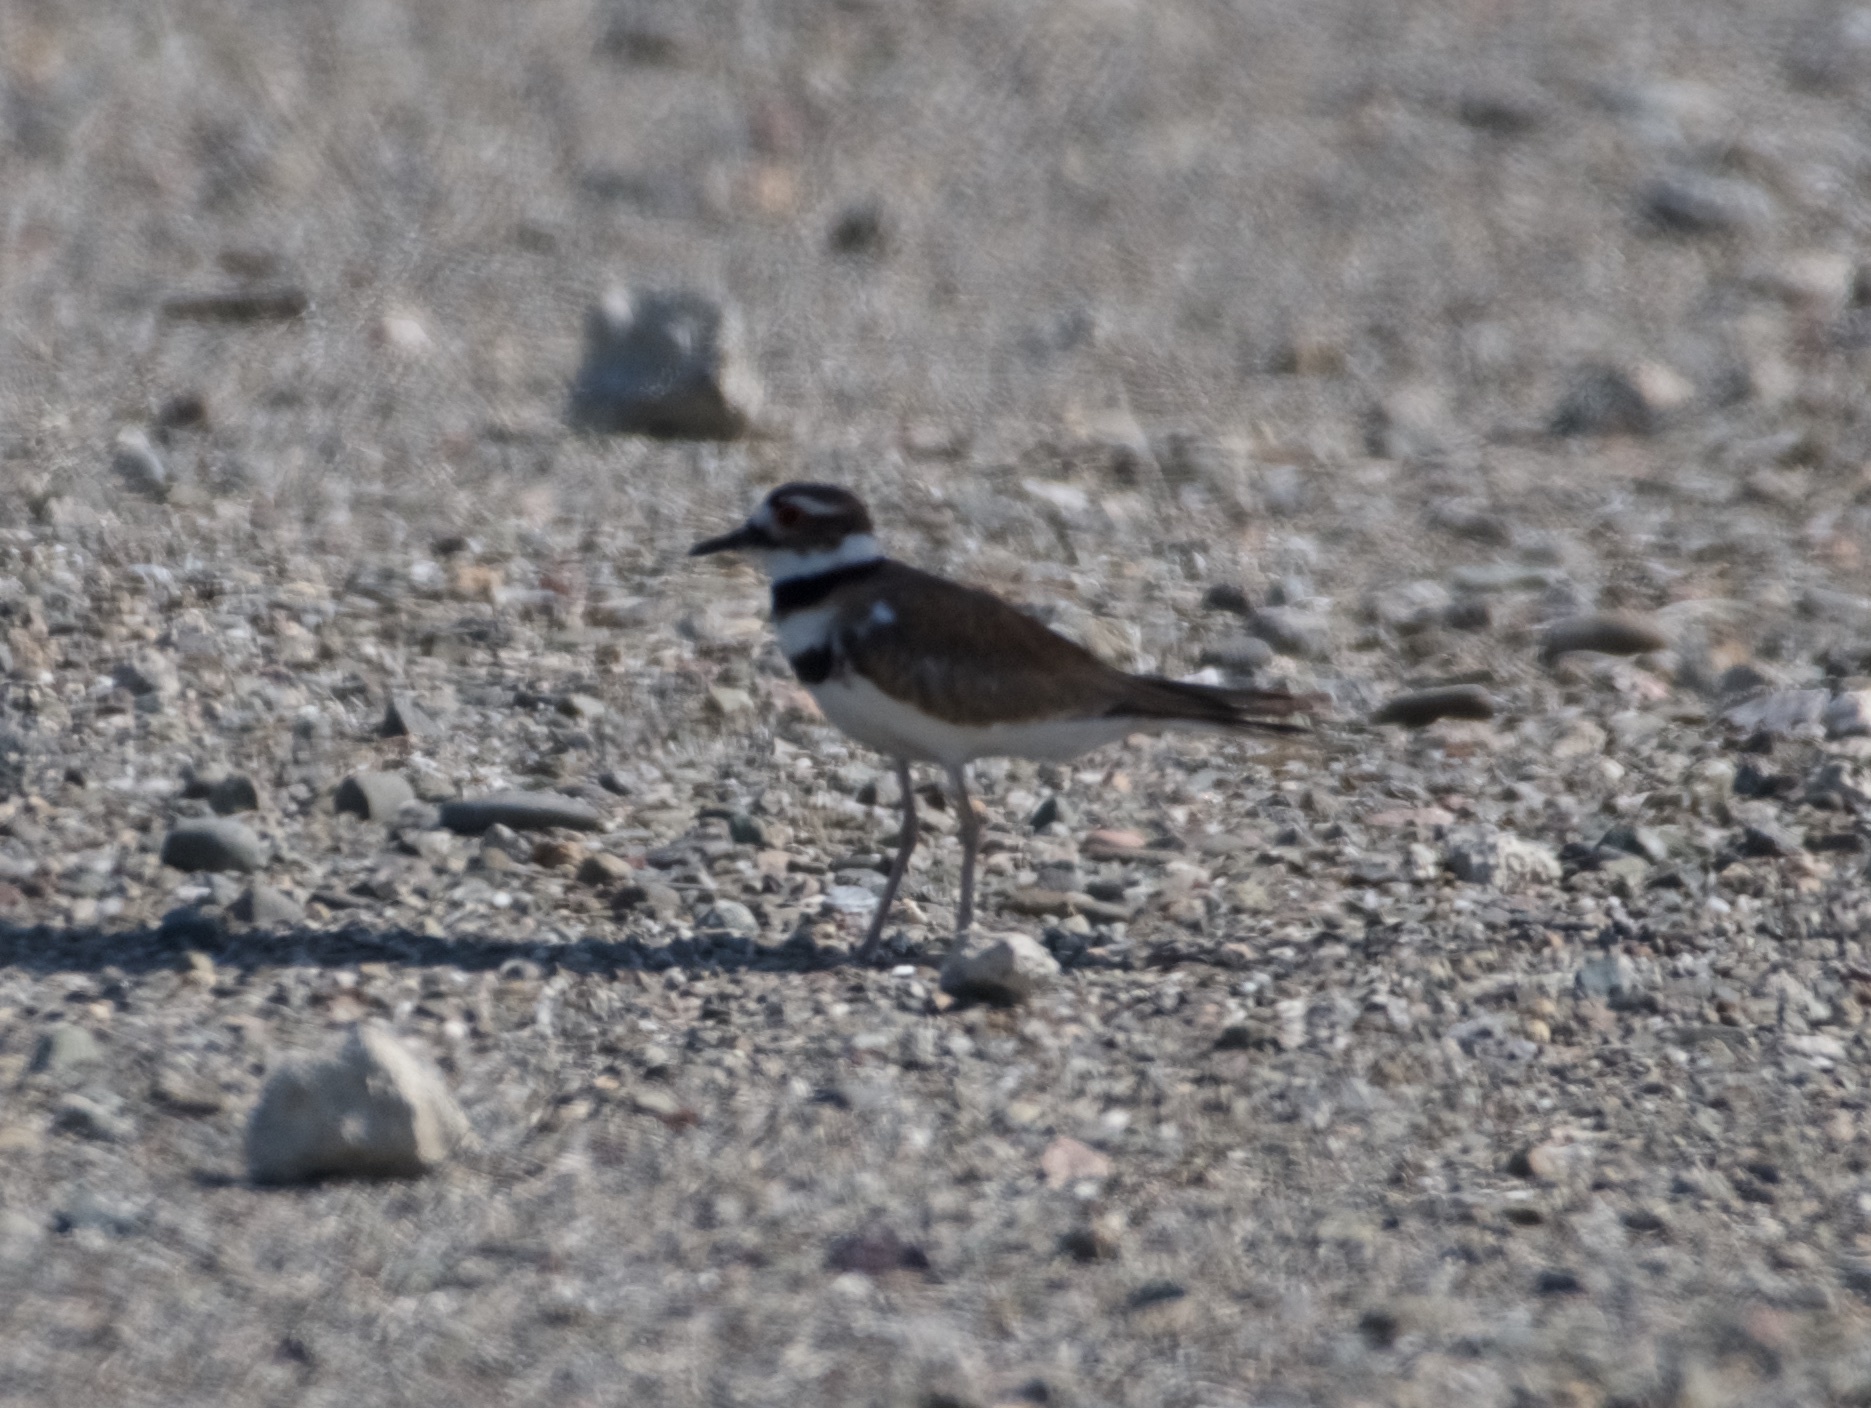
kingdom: Animalia
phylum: Chordata
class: Aves
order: Charadriiformes
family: Charadriidae
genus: Charadrius
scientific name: Charadrius vociferus
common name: Killdeer
